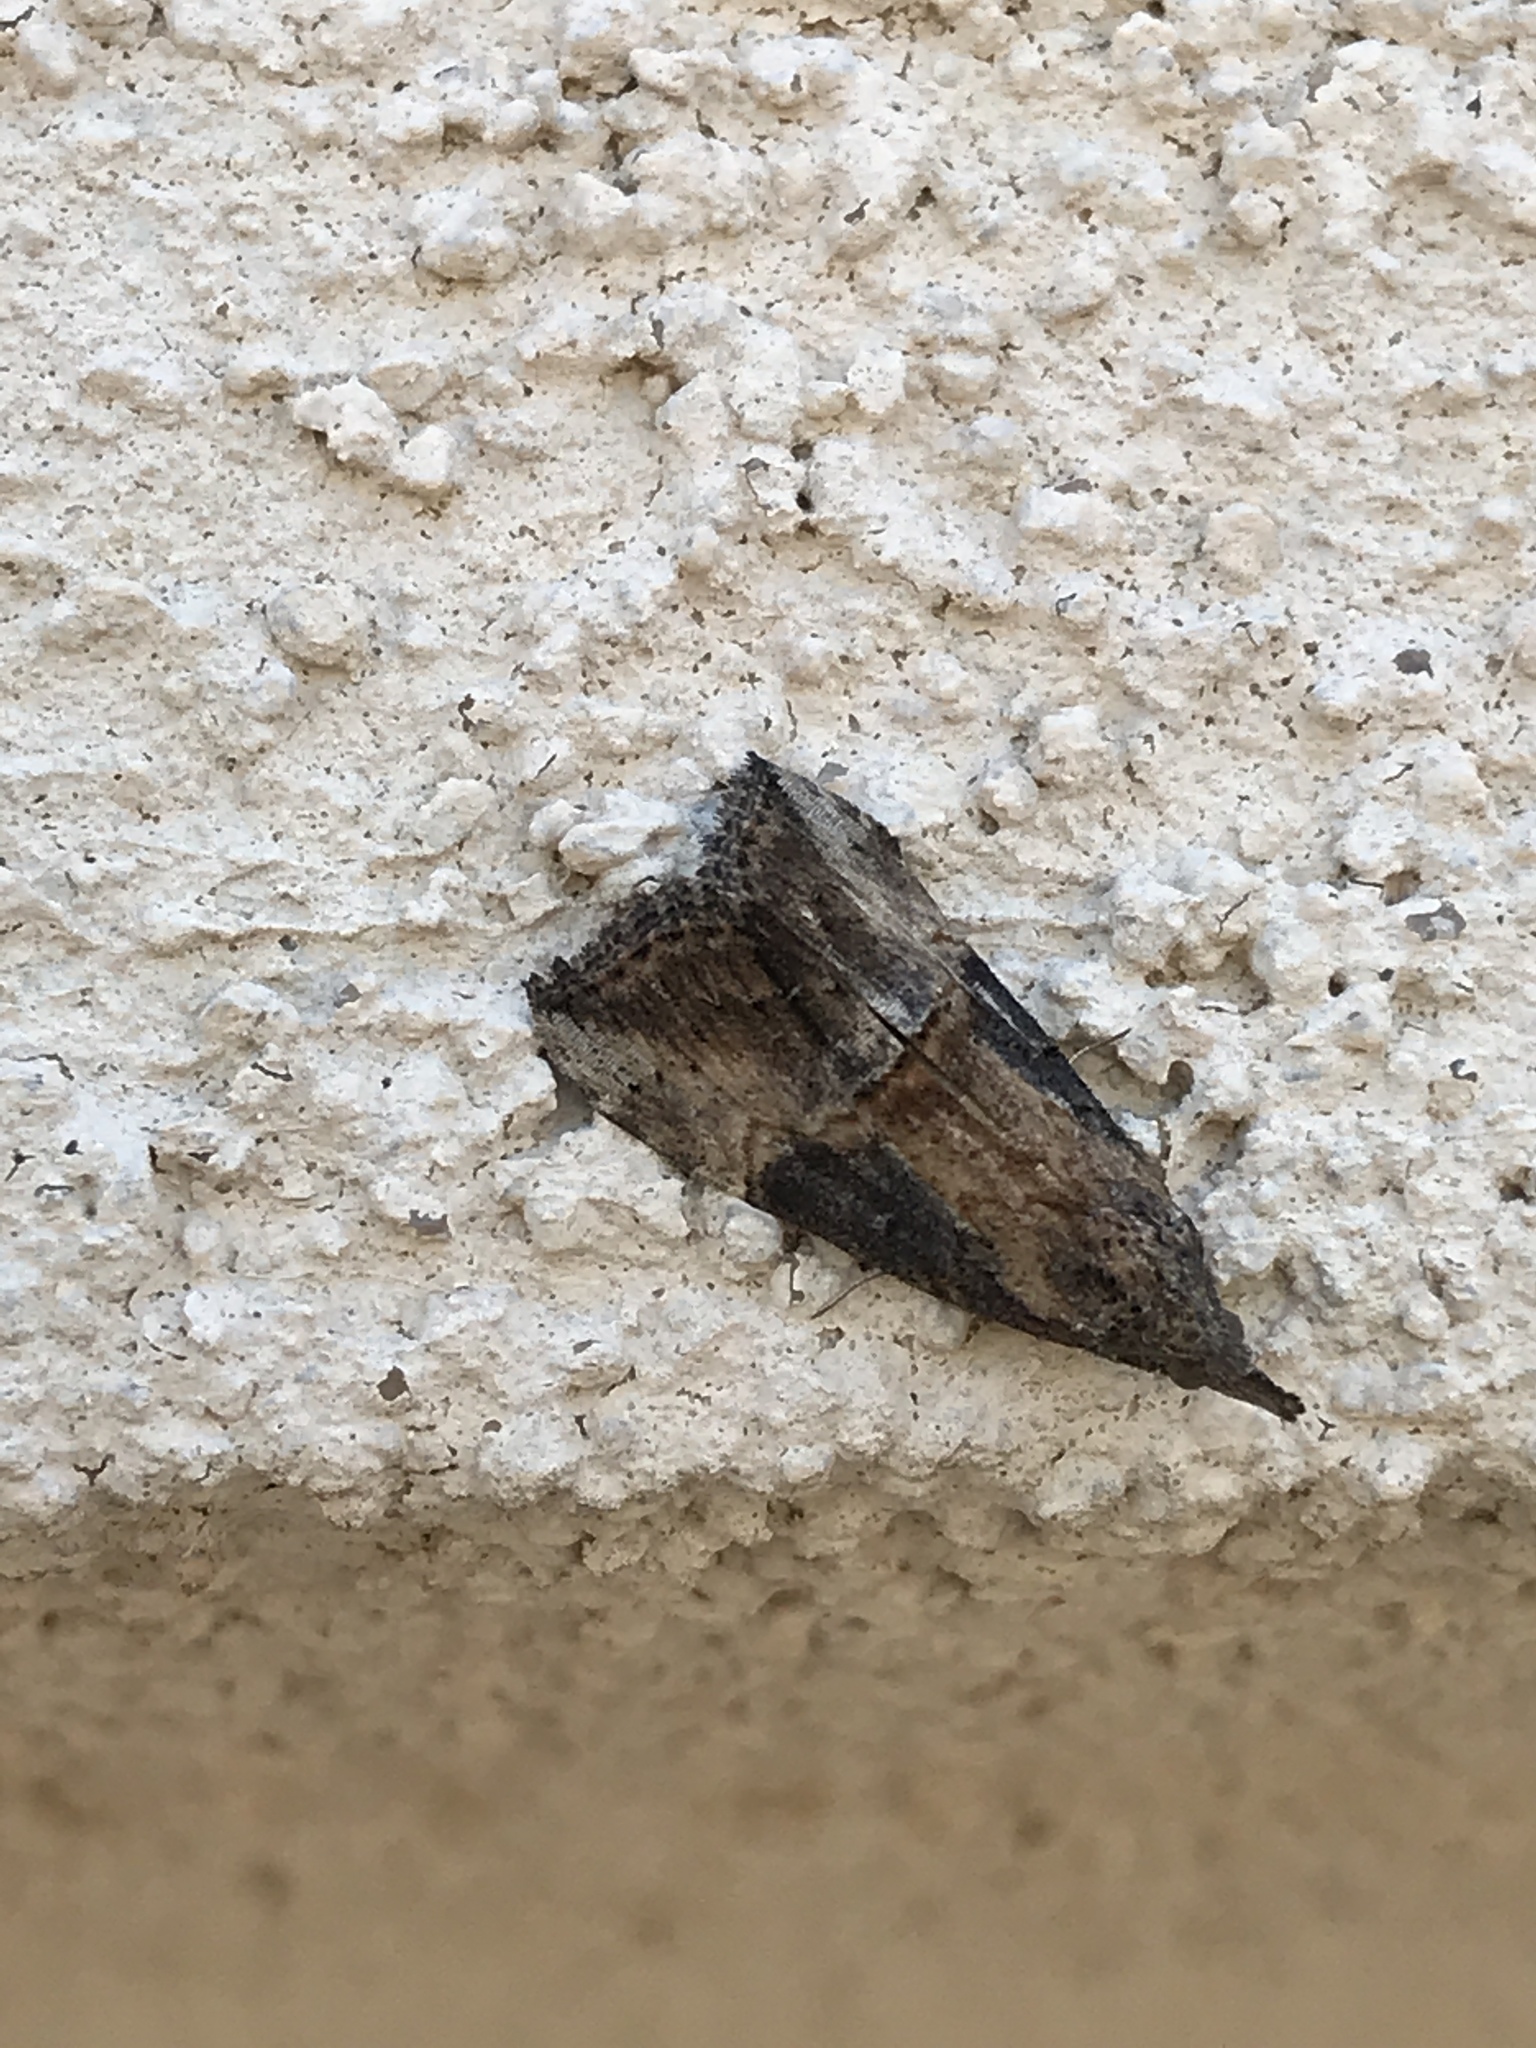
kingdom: Animalia
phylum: Arthropoda
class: Insecta
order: Lepidoptera
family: Erebidae
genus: Hypena
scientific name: Hypena scabra
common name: Green cloverworm
